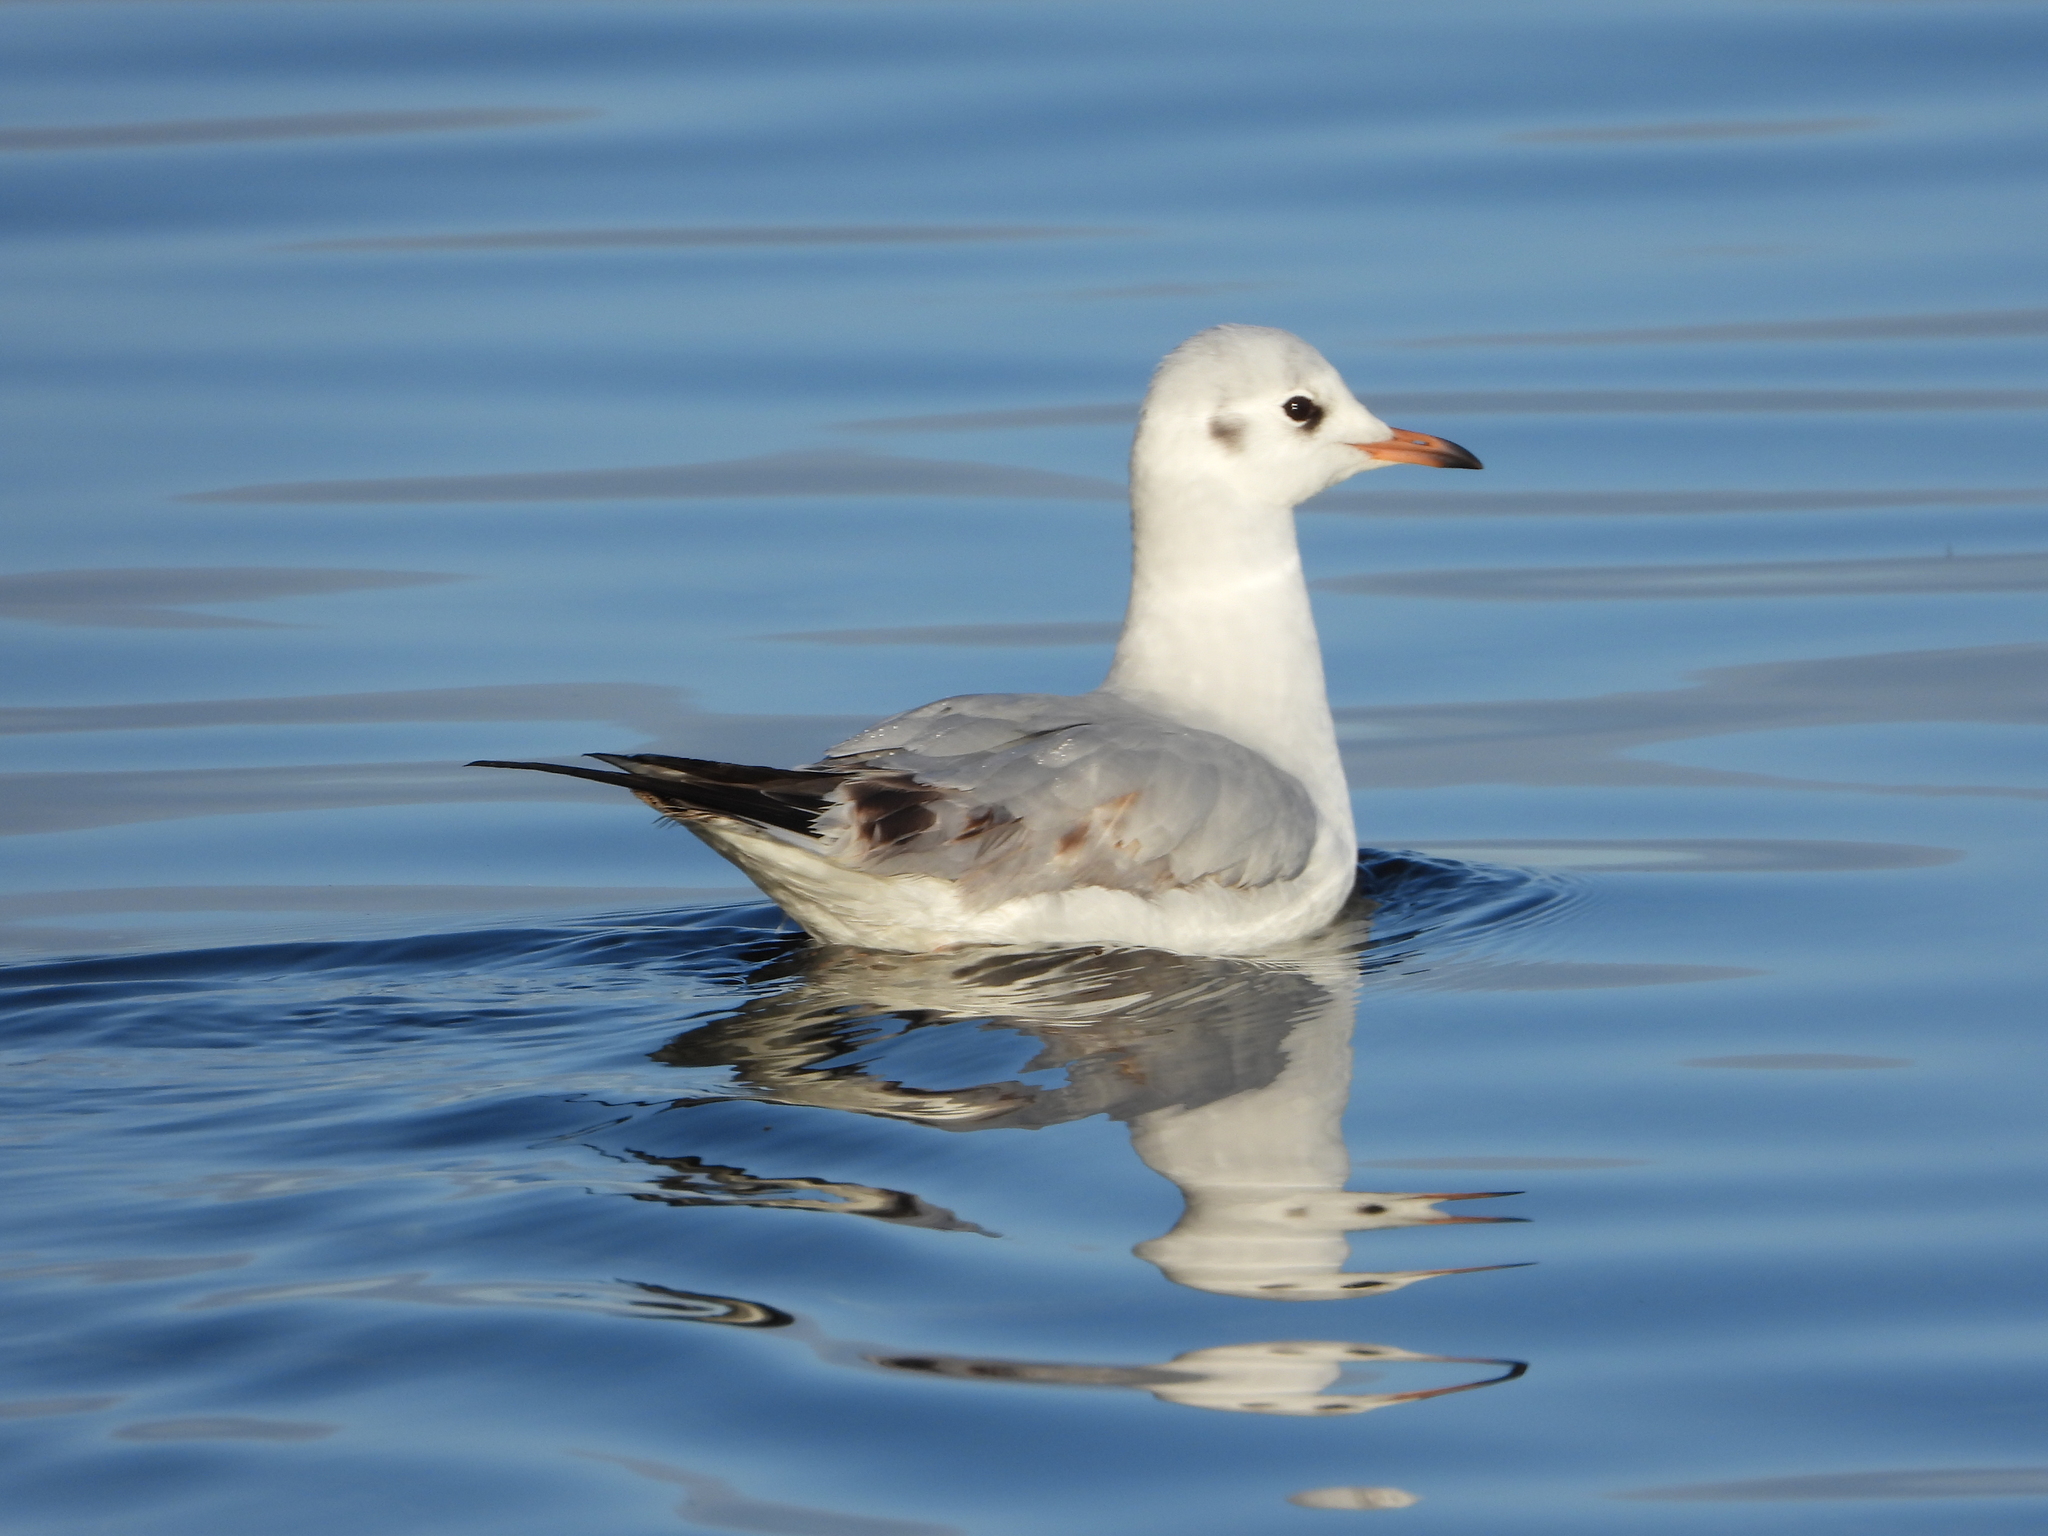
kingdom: Animalia
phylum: Chordata
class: Aves
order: Charadriiformes
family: Laridae
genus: Chroicocephalus
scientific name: Chroicocephalus ridibundus
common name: Black-headed gull
